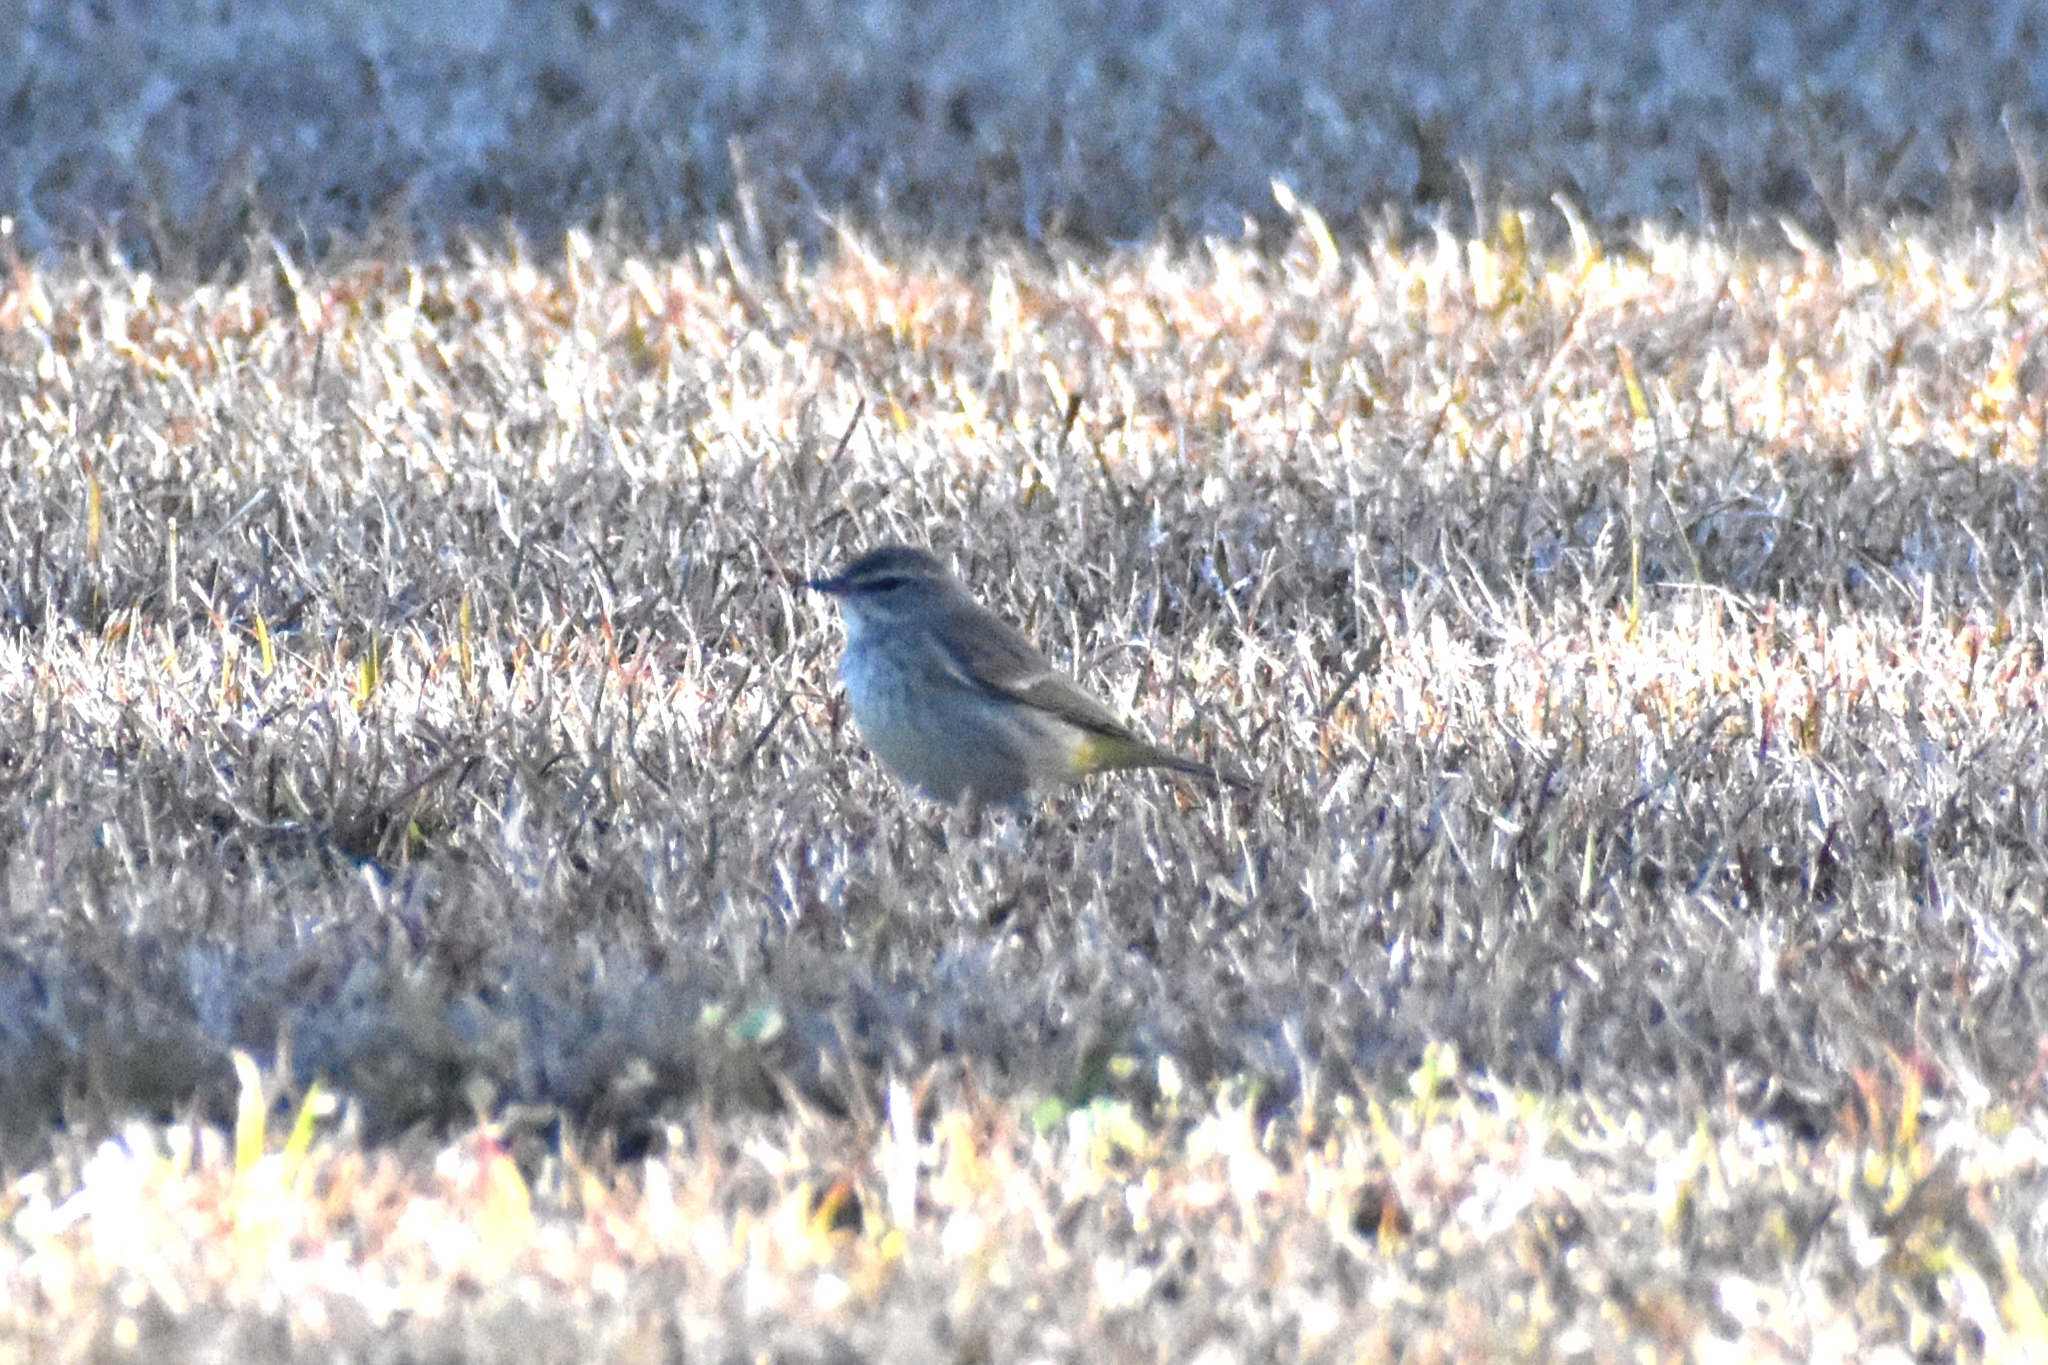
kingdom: Animalia
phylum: Chordata
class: Aves
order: Passeriformes
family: Parulidae
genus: Setophaga
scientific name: Setophaga palmarum
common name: Palm warbler
